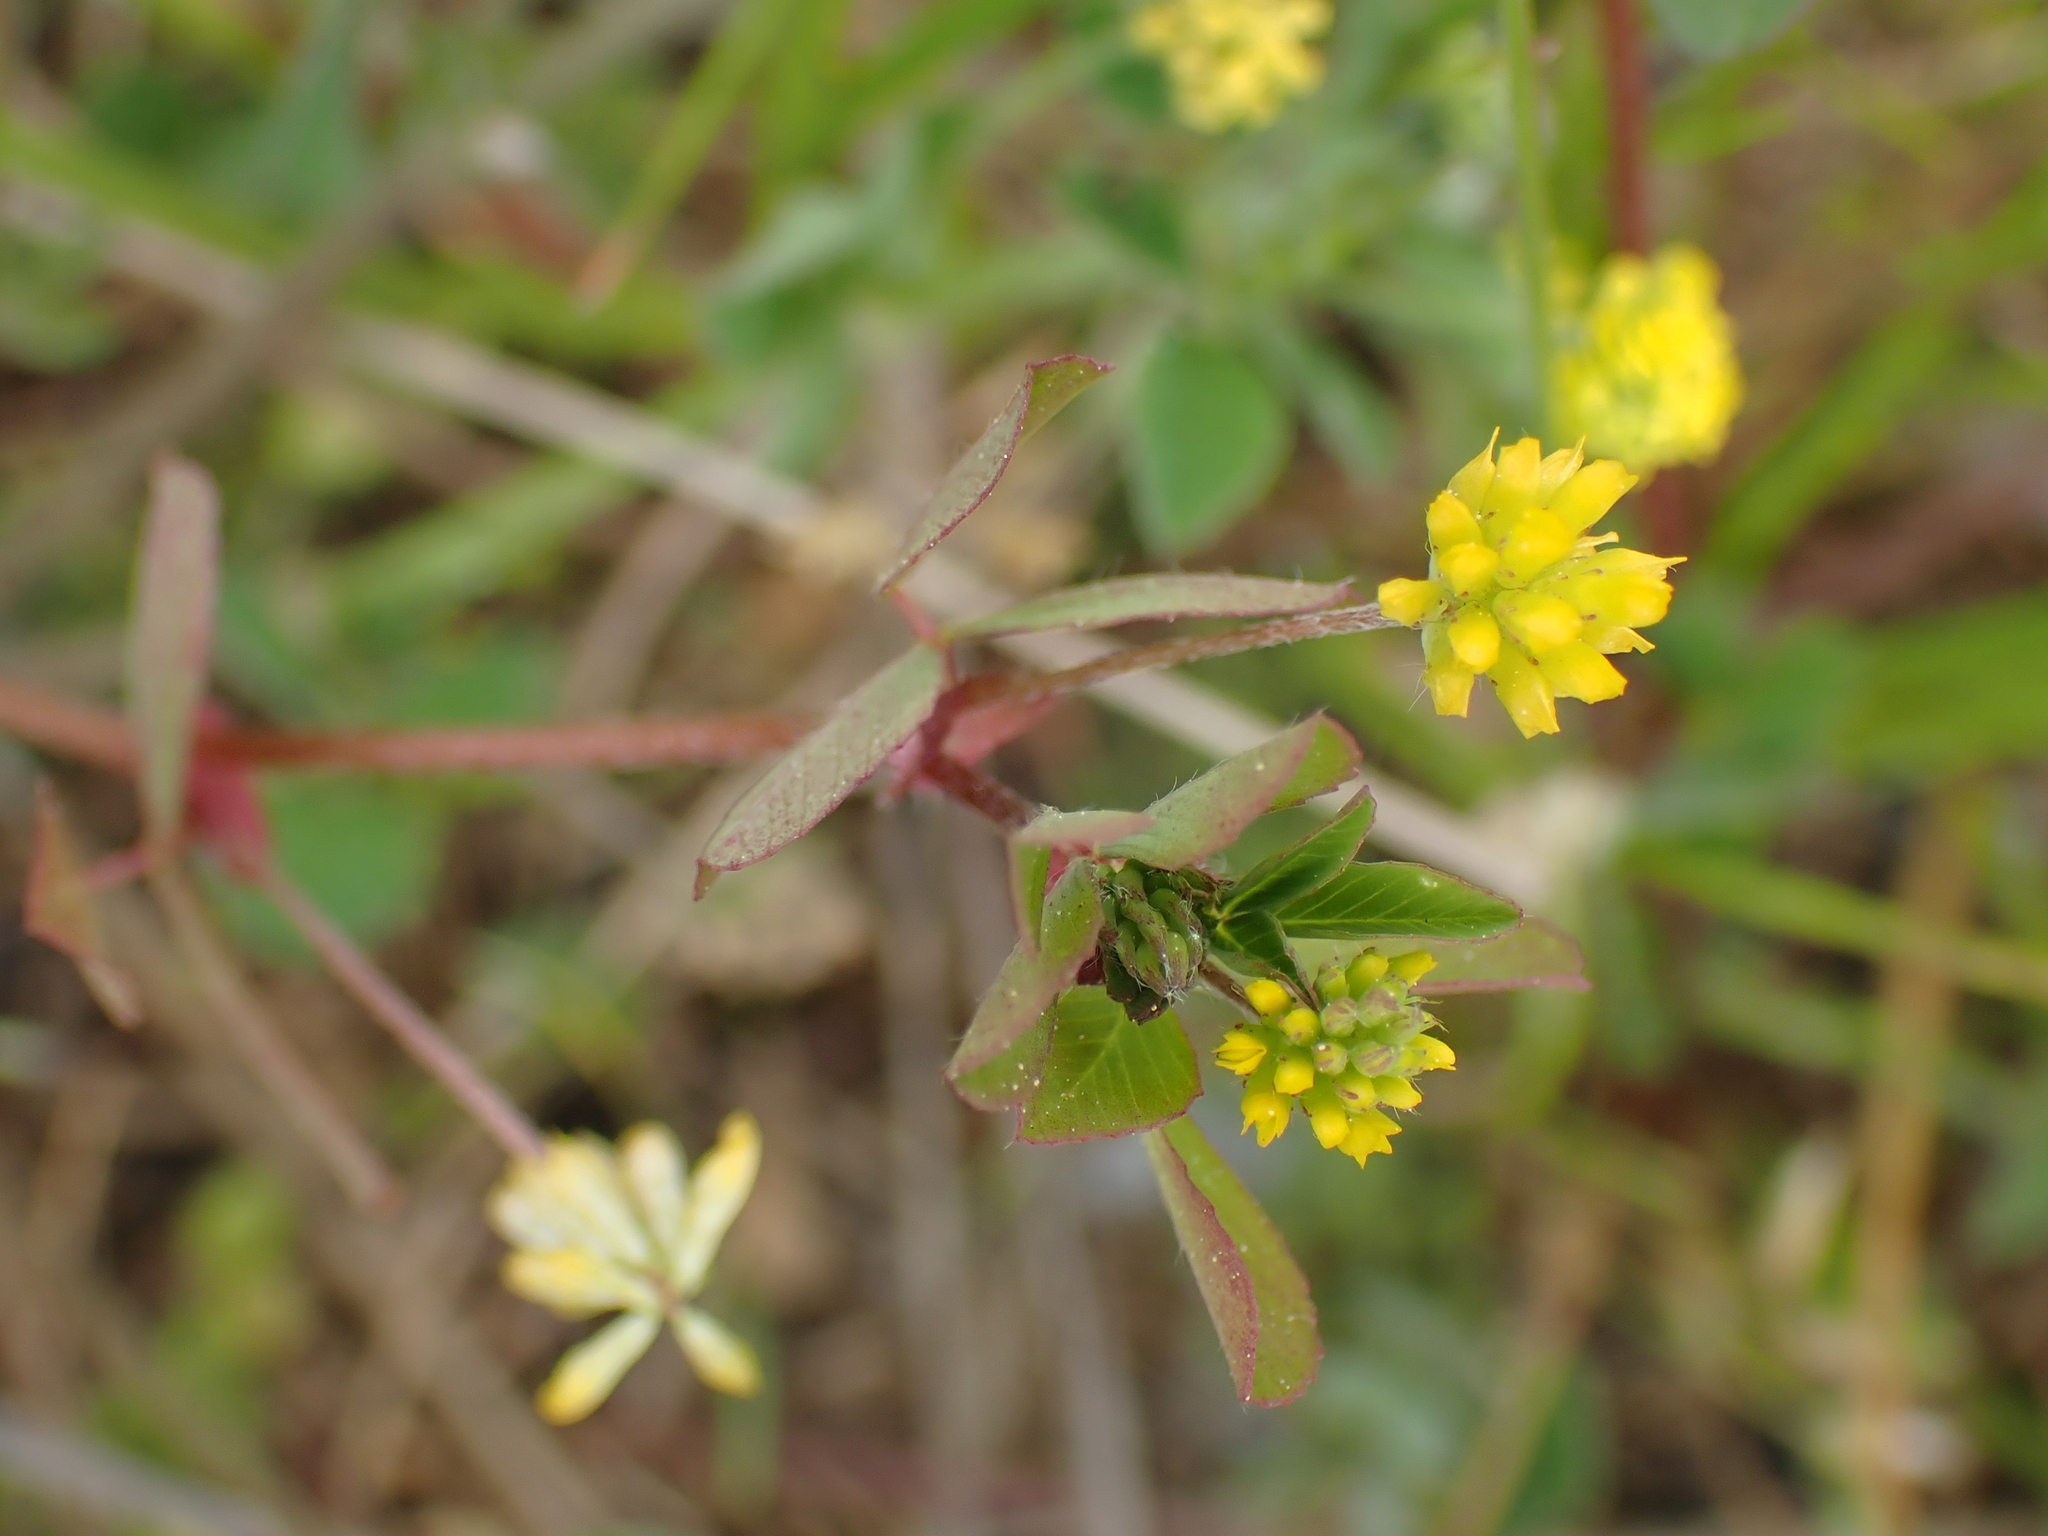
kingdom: Plantae
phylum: Tracheophyta
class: Magnoliopsida
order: Fabales
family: Fabaceae
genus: Trifolium
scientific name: Trifolium dubium
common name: Suckling clover
